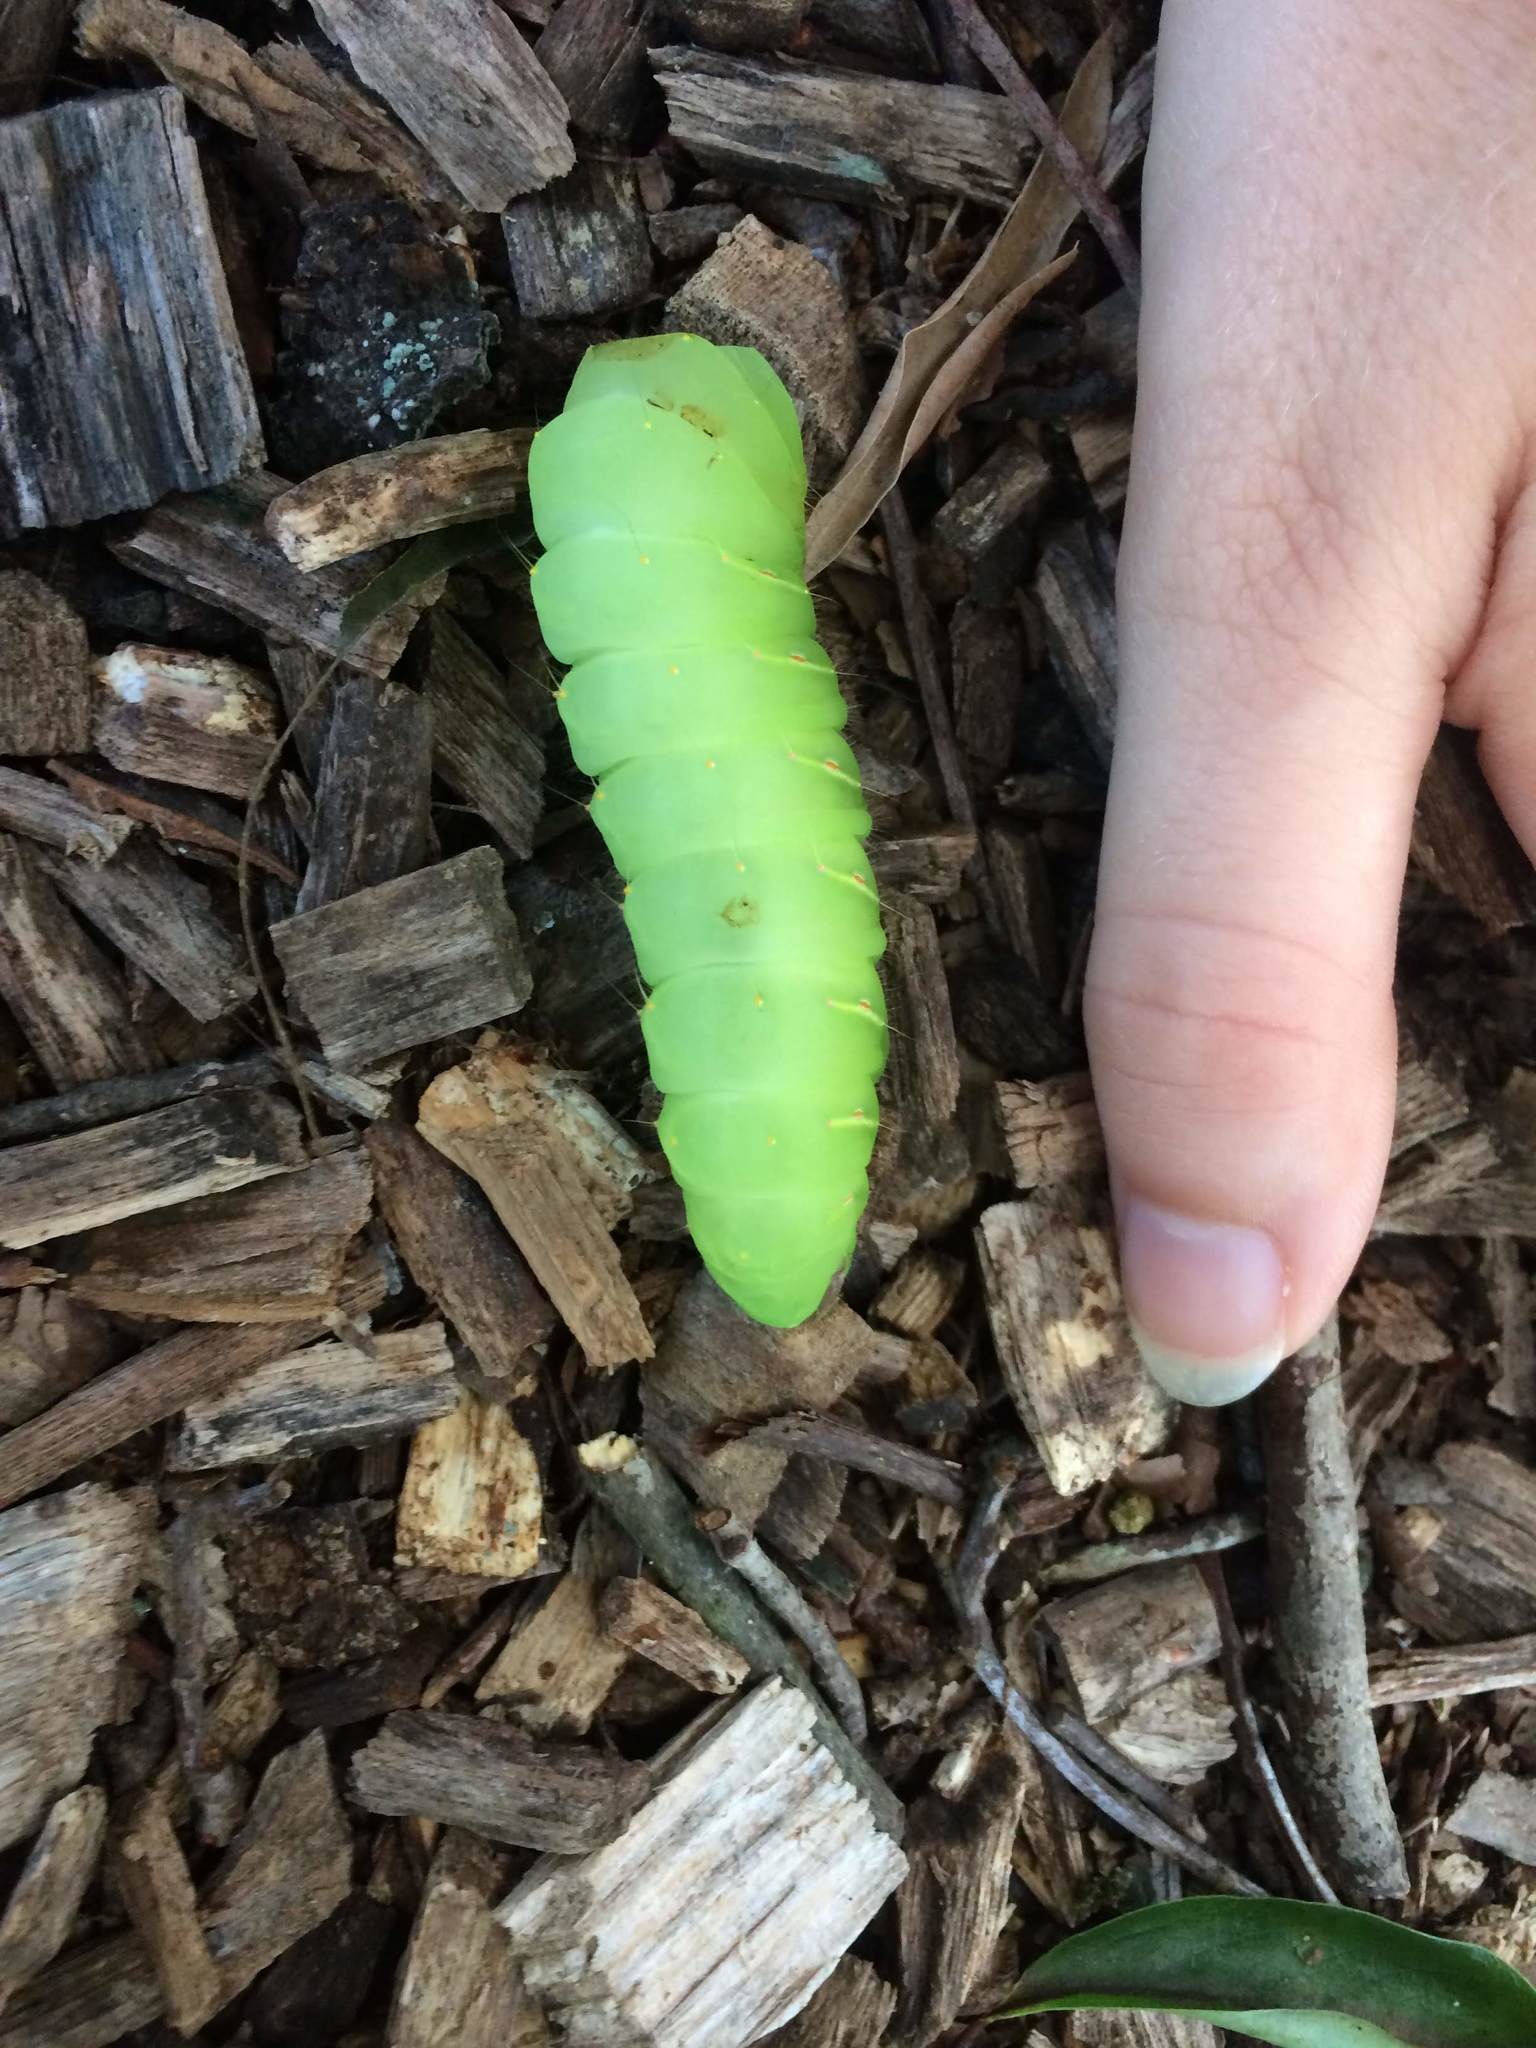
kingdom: Animalia
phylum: Arthropoda
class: Insecta
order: Lepidoptera
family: Saturniidae
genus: Antheraea
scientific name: Antheraea polyphemus
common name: Polyphemus moth
